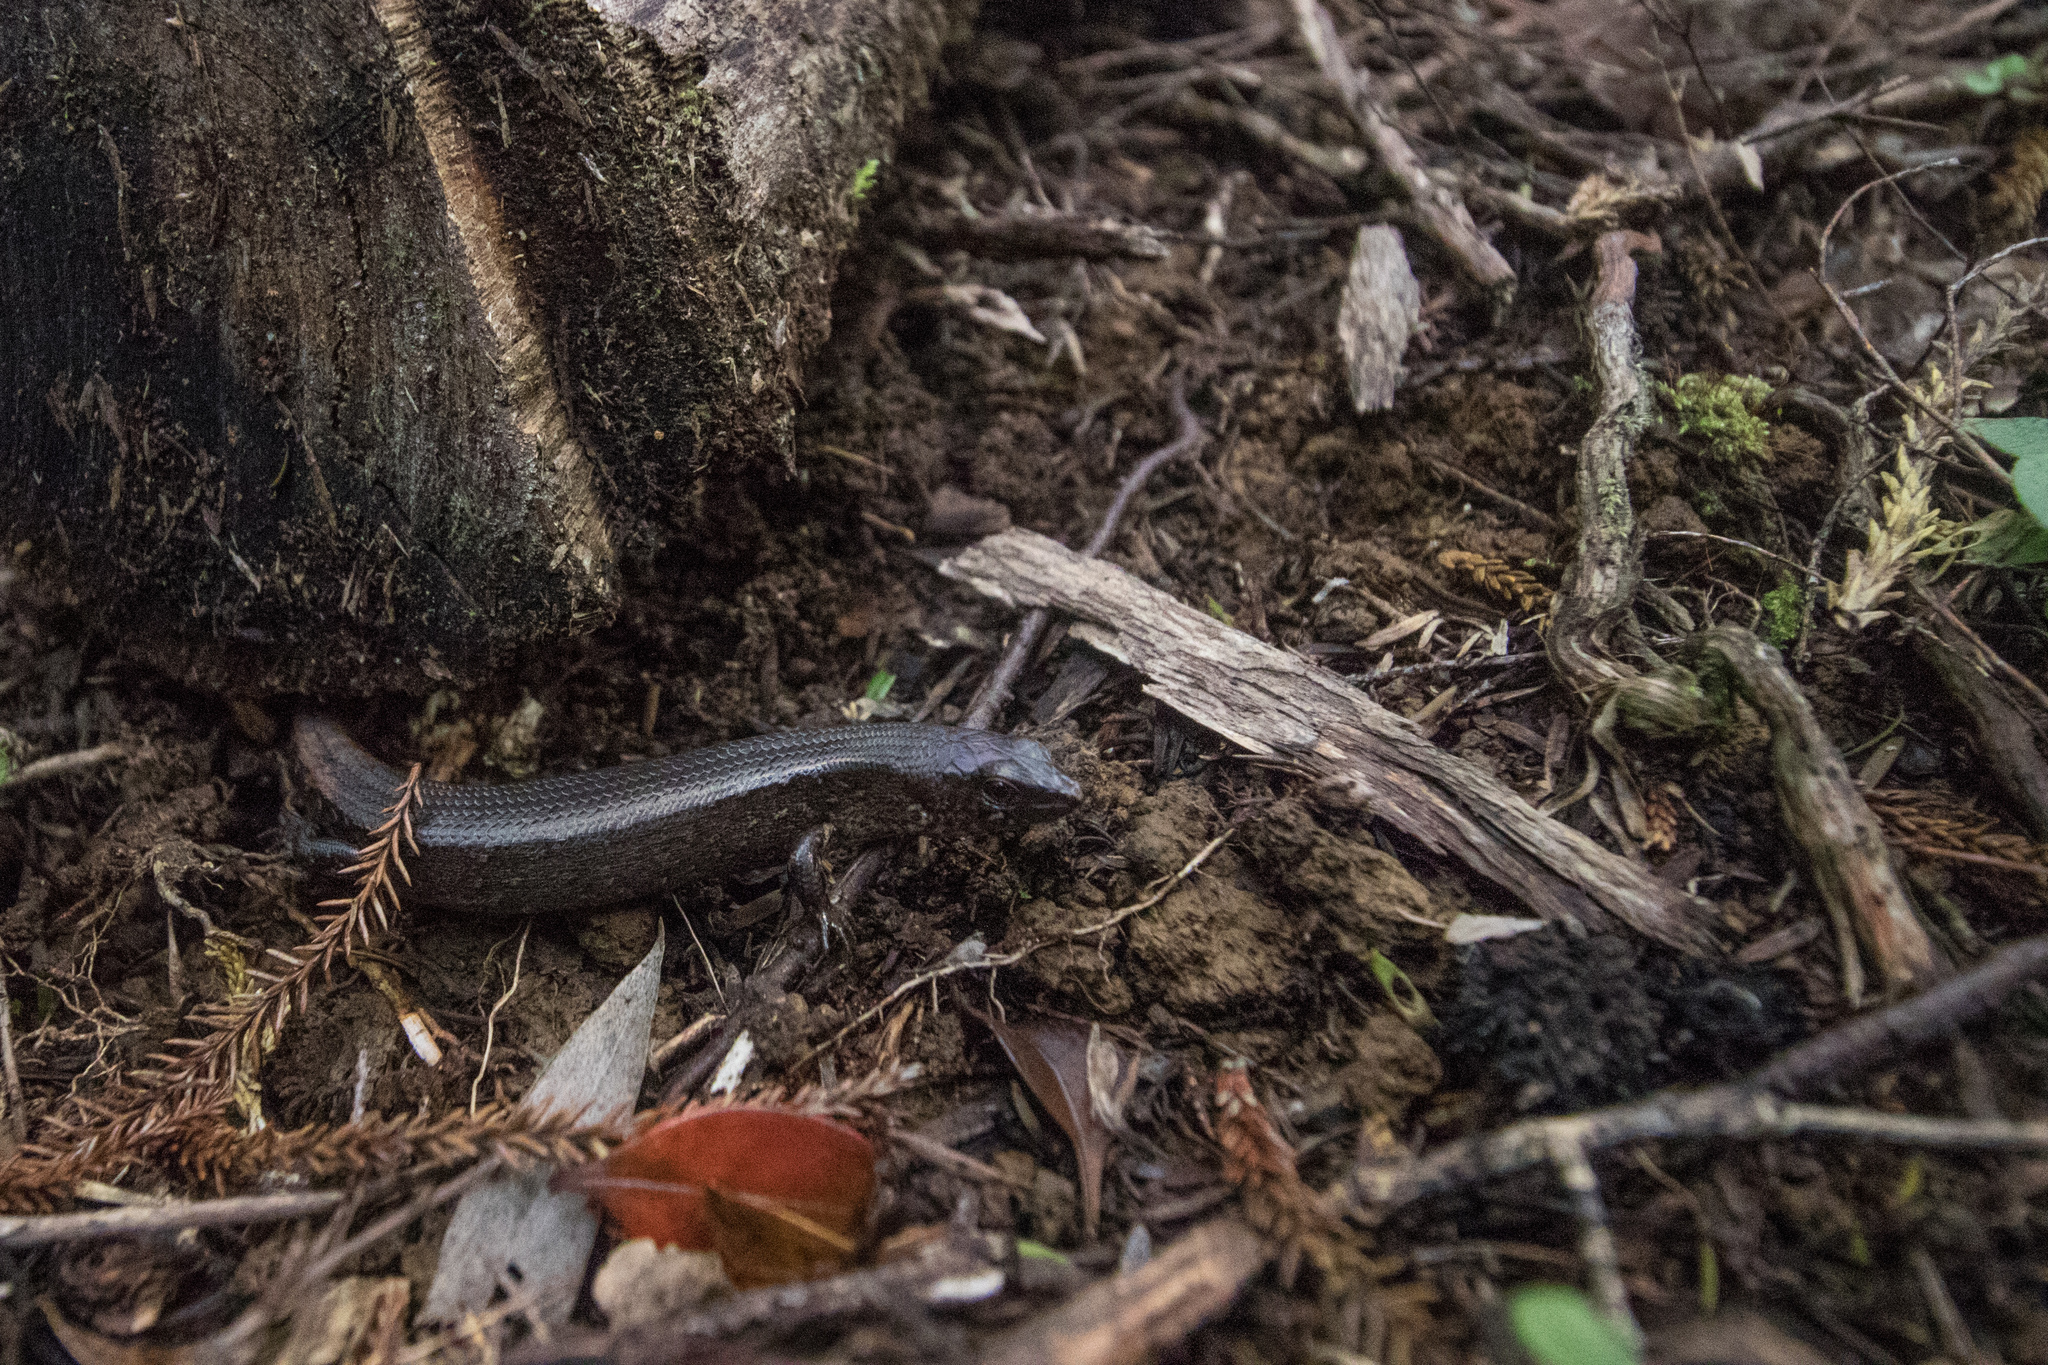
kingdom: Animalia
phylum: Chordata
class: Squamata
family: Scincidae
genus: Oligosoma
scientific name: Oligosoma ornatum
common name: Gray's ornate skink
